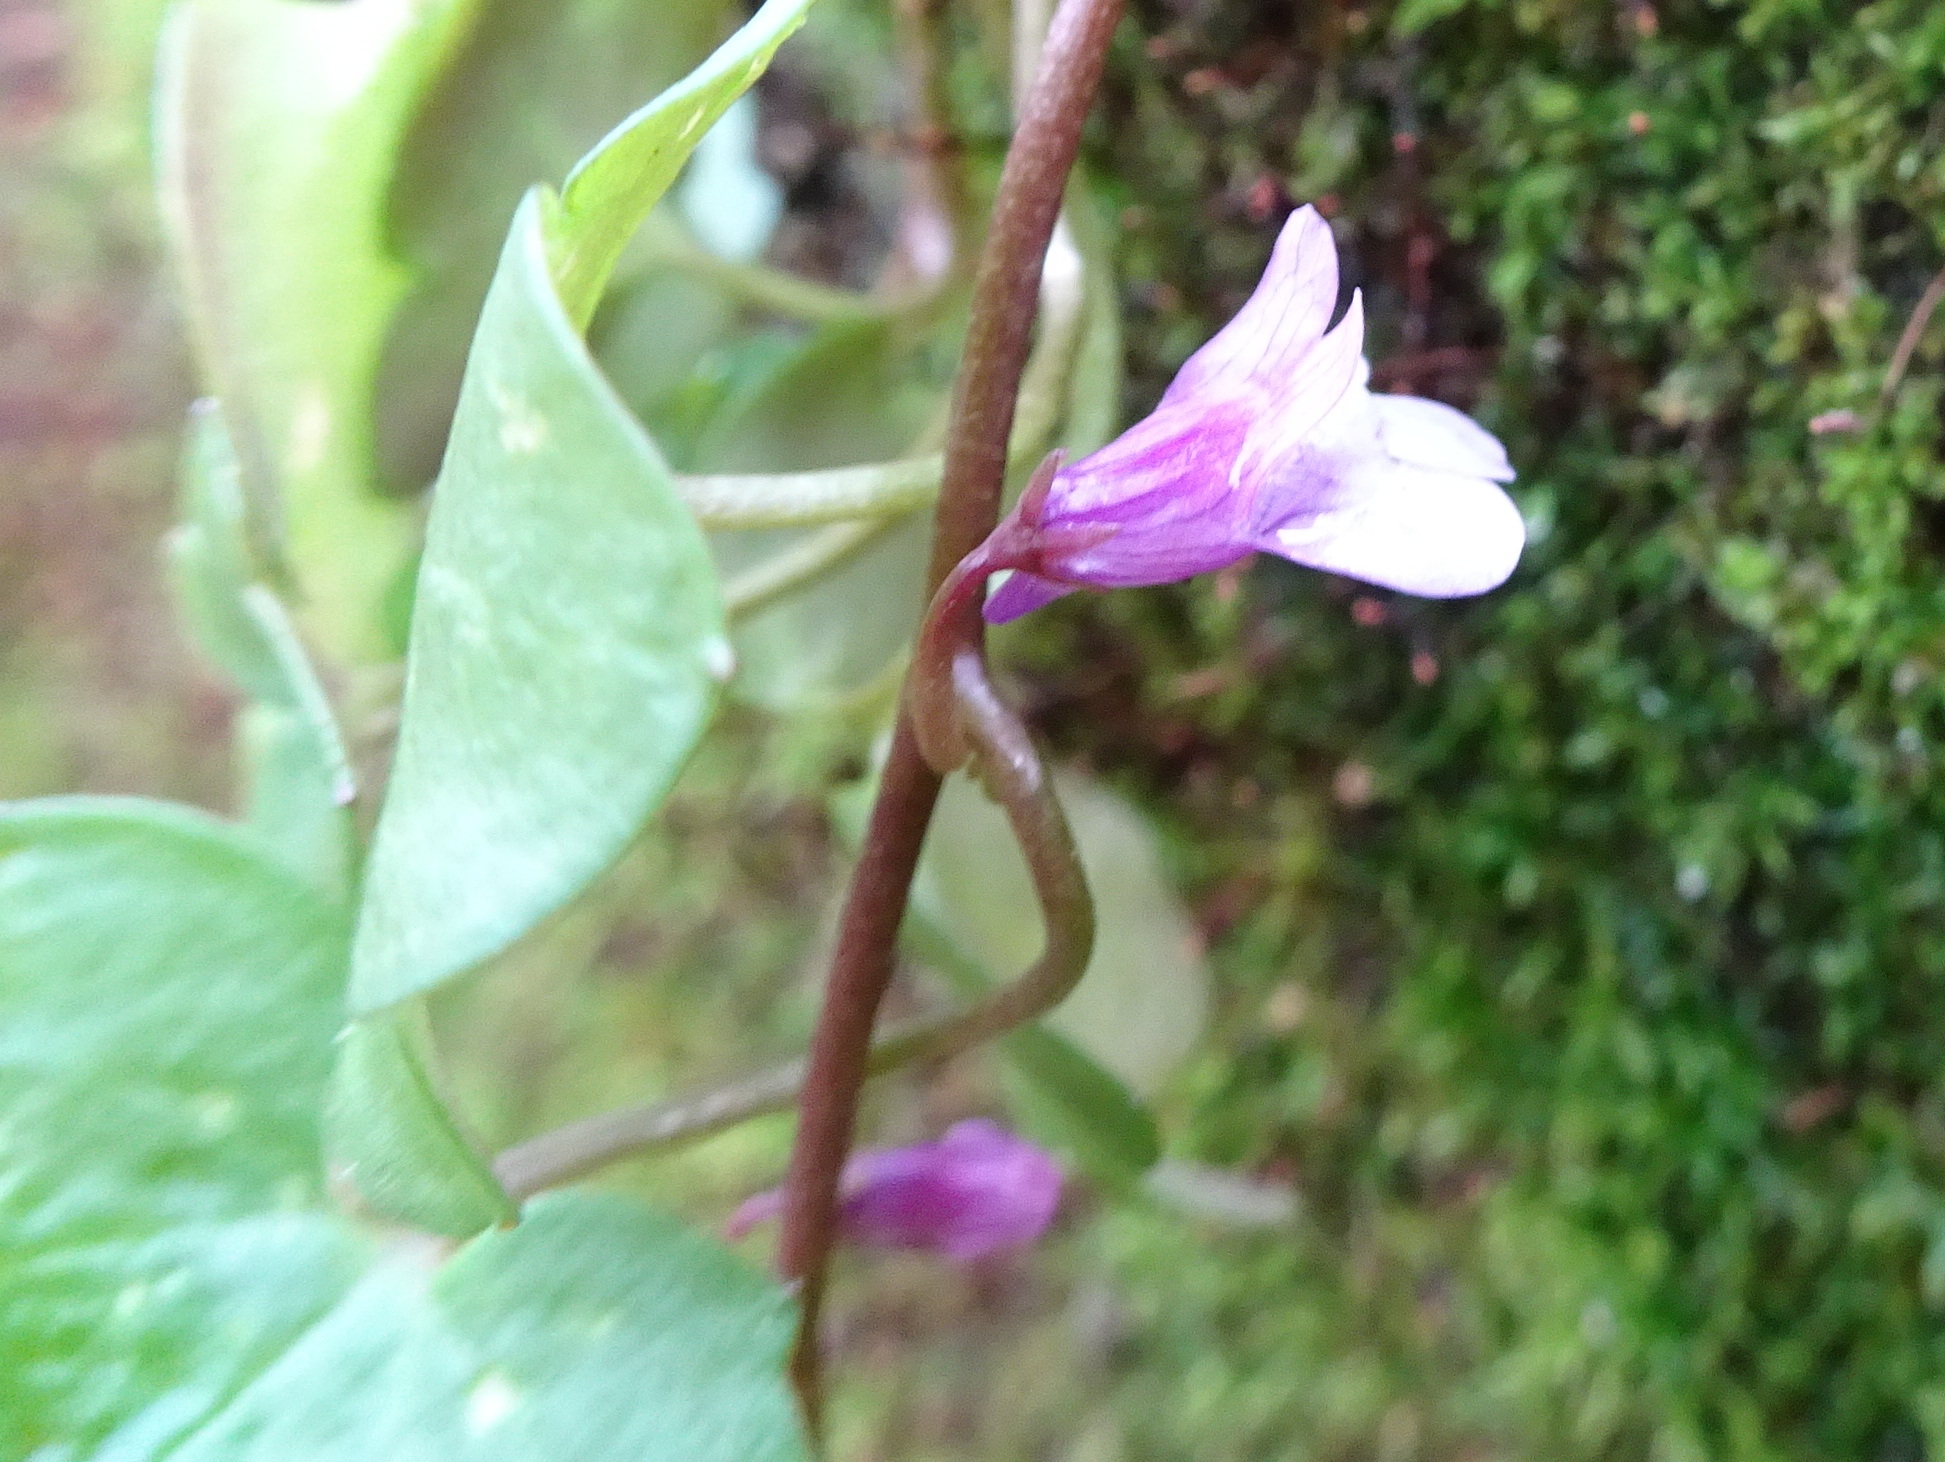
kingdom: Plantae
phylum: Tracheophyta
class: Magnoliopsida
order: Lamiales
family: Plantaginaceae
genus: Cymbalaria
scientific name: Cymbalaria muralis
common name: Ivy-leaved toadflax
